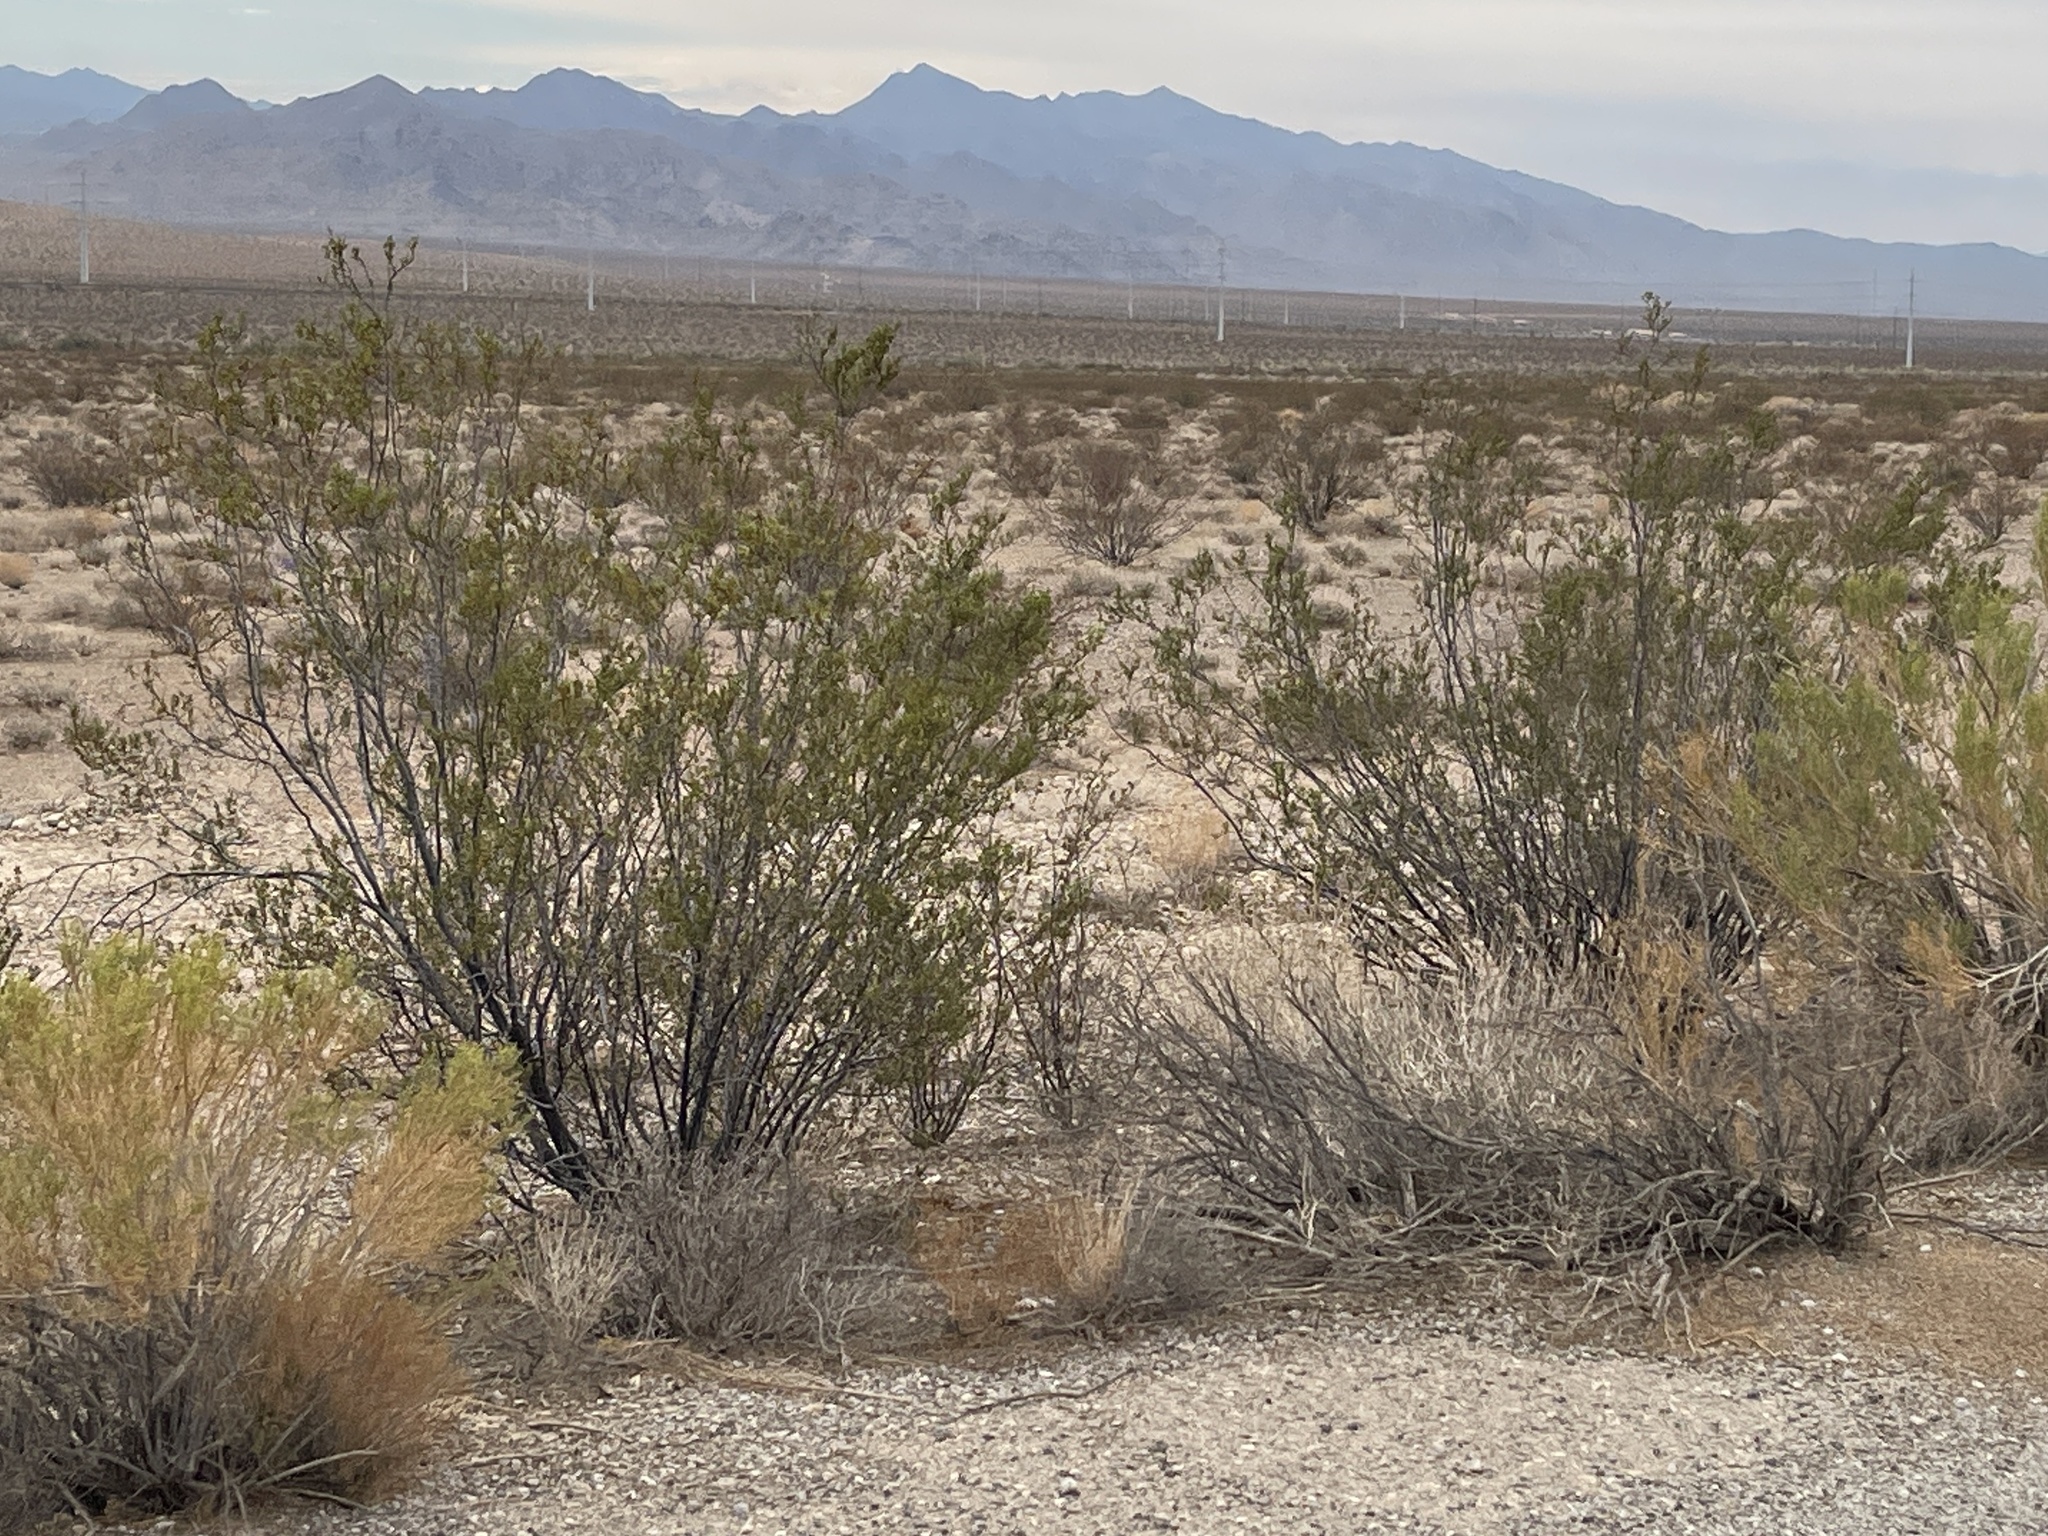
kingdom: Plantae
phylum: Tracheophyta
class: Magnoliopsida
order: Zygophyllales
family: Zygophyllaceae
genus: Larrea
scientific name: Larrea tridentata
